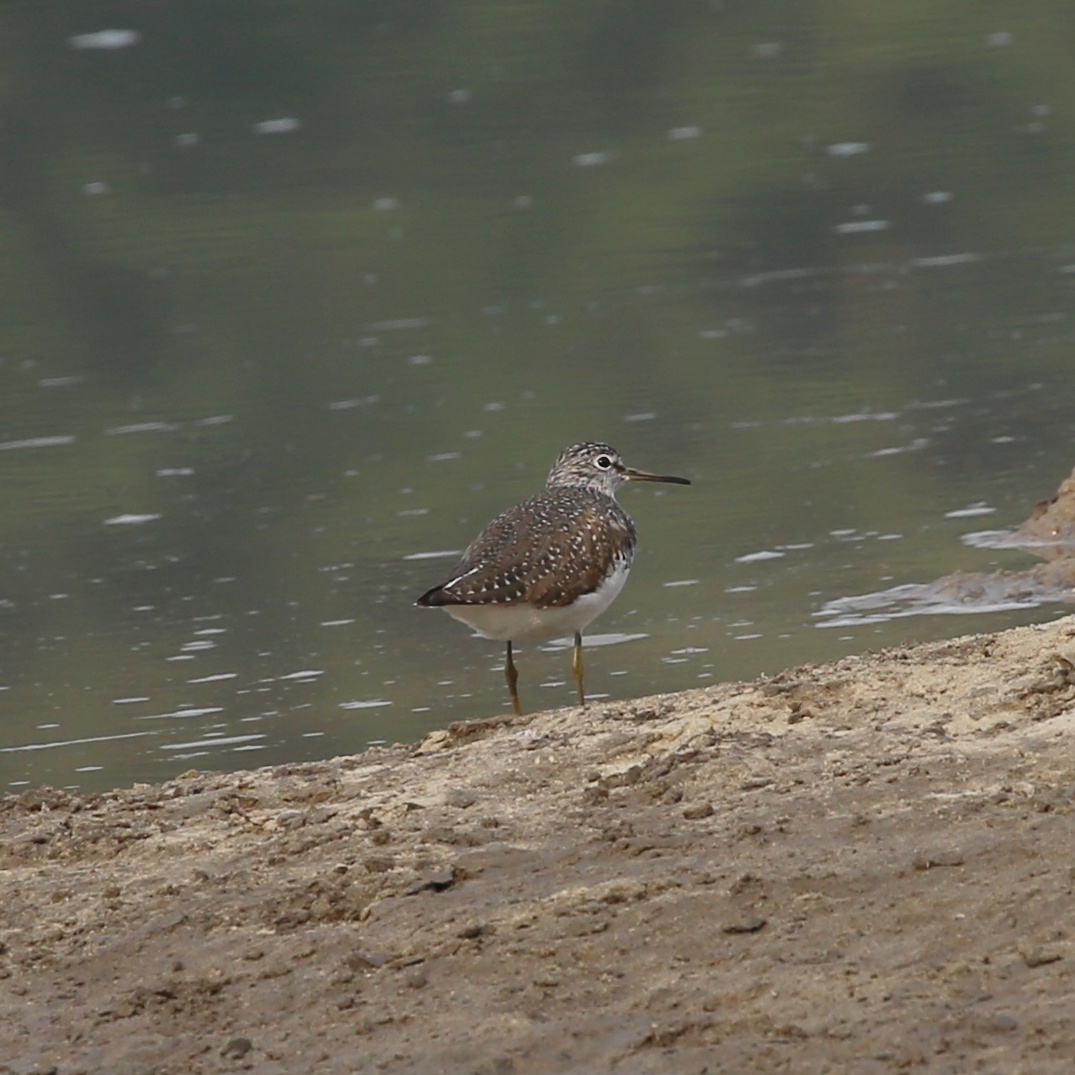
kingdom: Animalia
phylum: Chordata
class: Aves
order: Charadriiformes
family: Scolopacidae
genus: Tringa
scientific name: Tringa ochropus
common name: Green sandpiper
